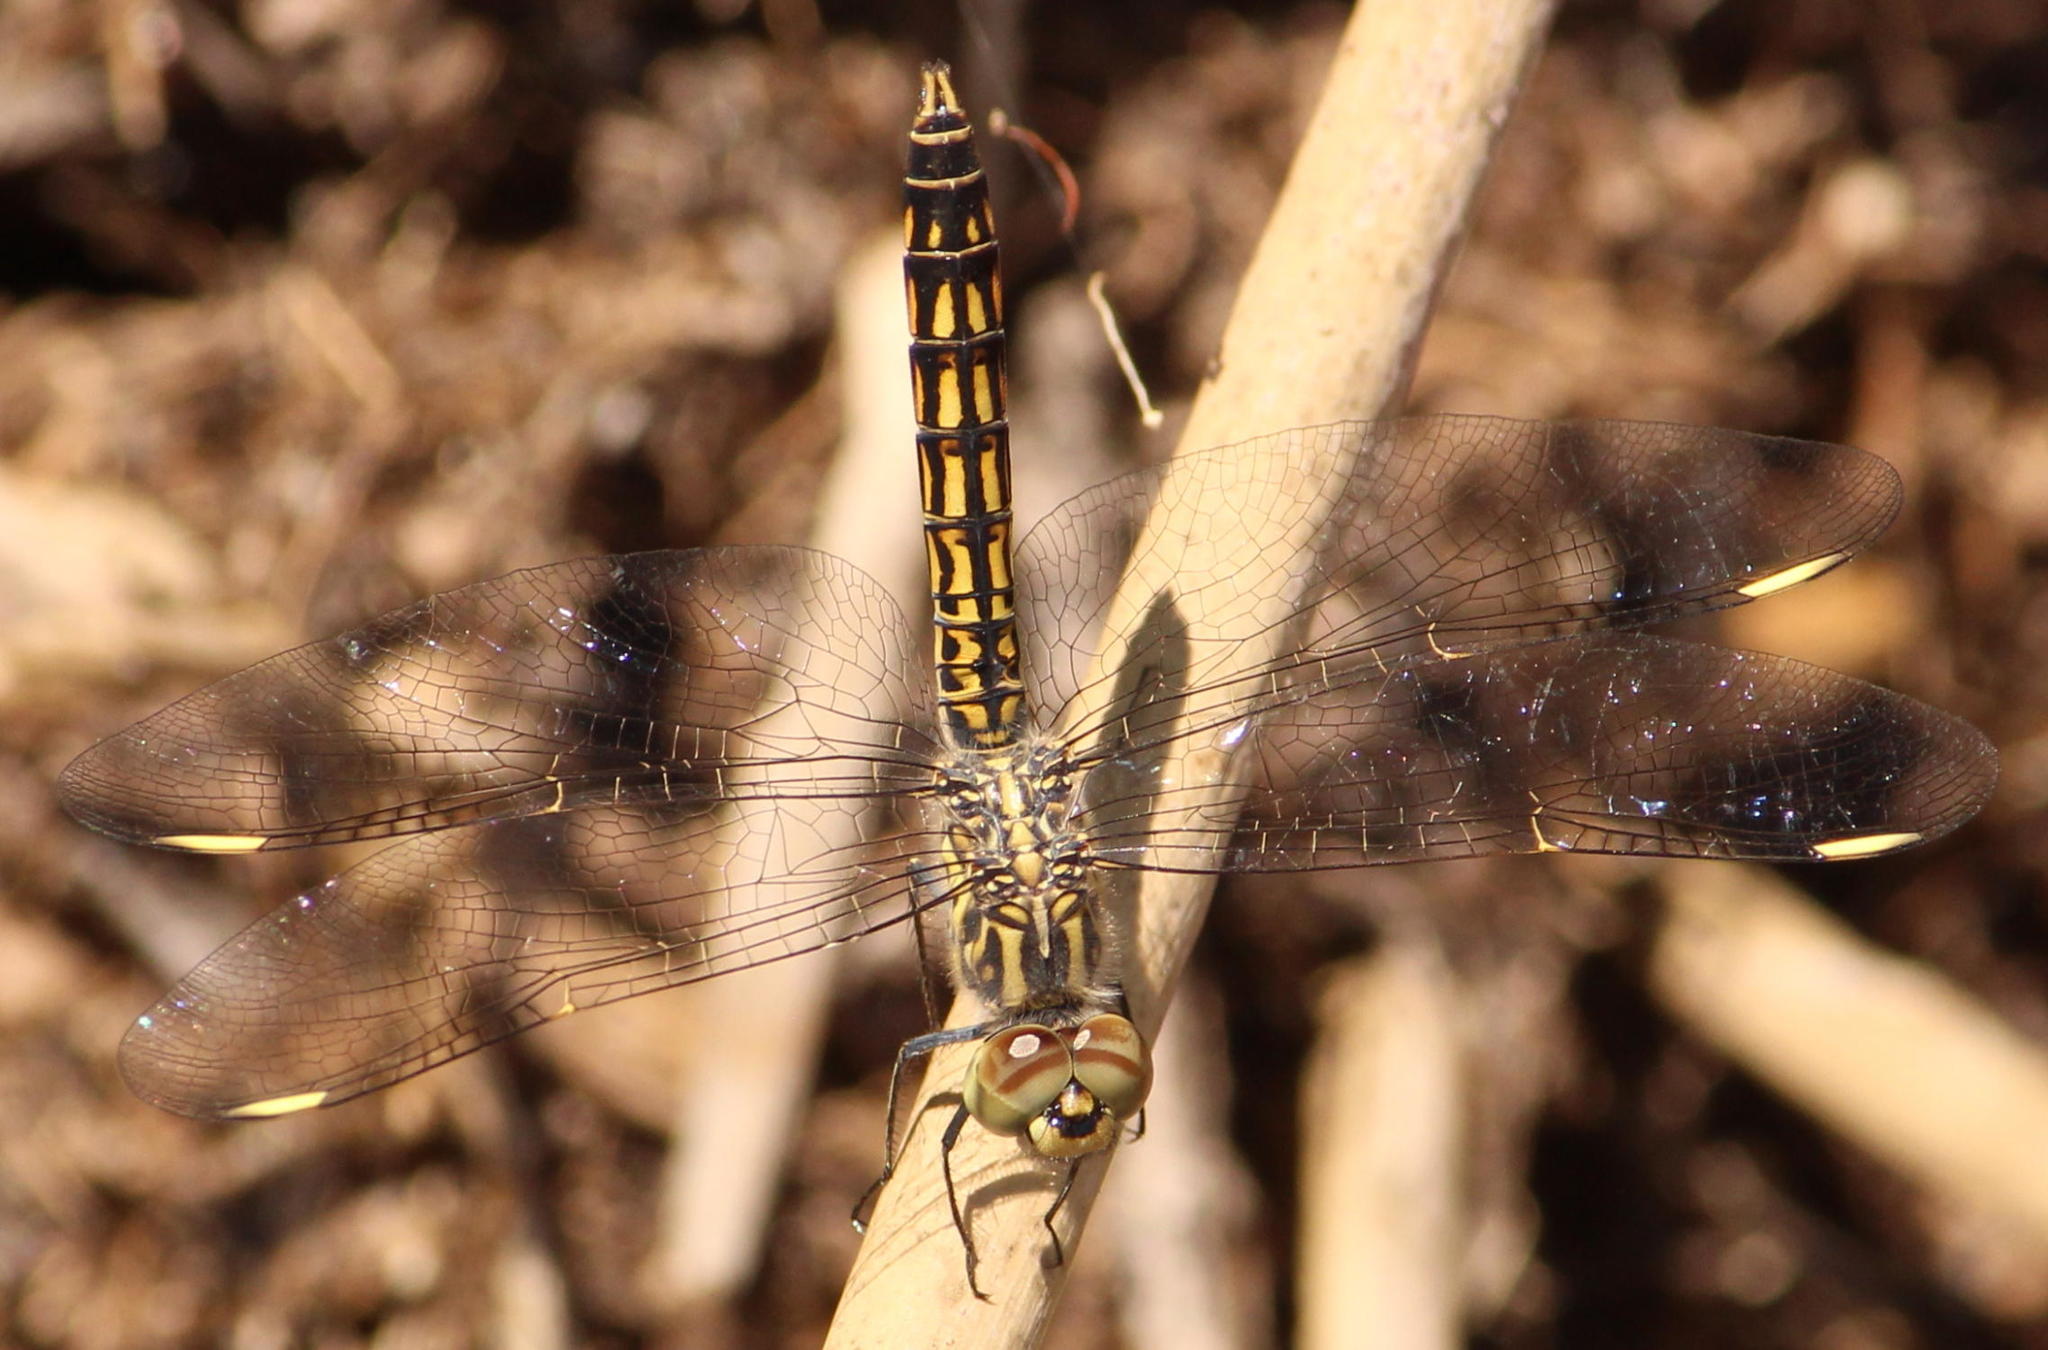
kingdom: Animalia
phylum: Arthropoda
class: Insecta
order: Odonata
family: Libellulidae
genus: Brachythemis
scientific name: Brachythemis leucosticta
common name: Banded groundling
